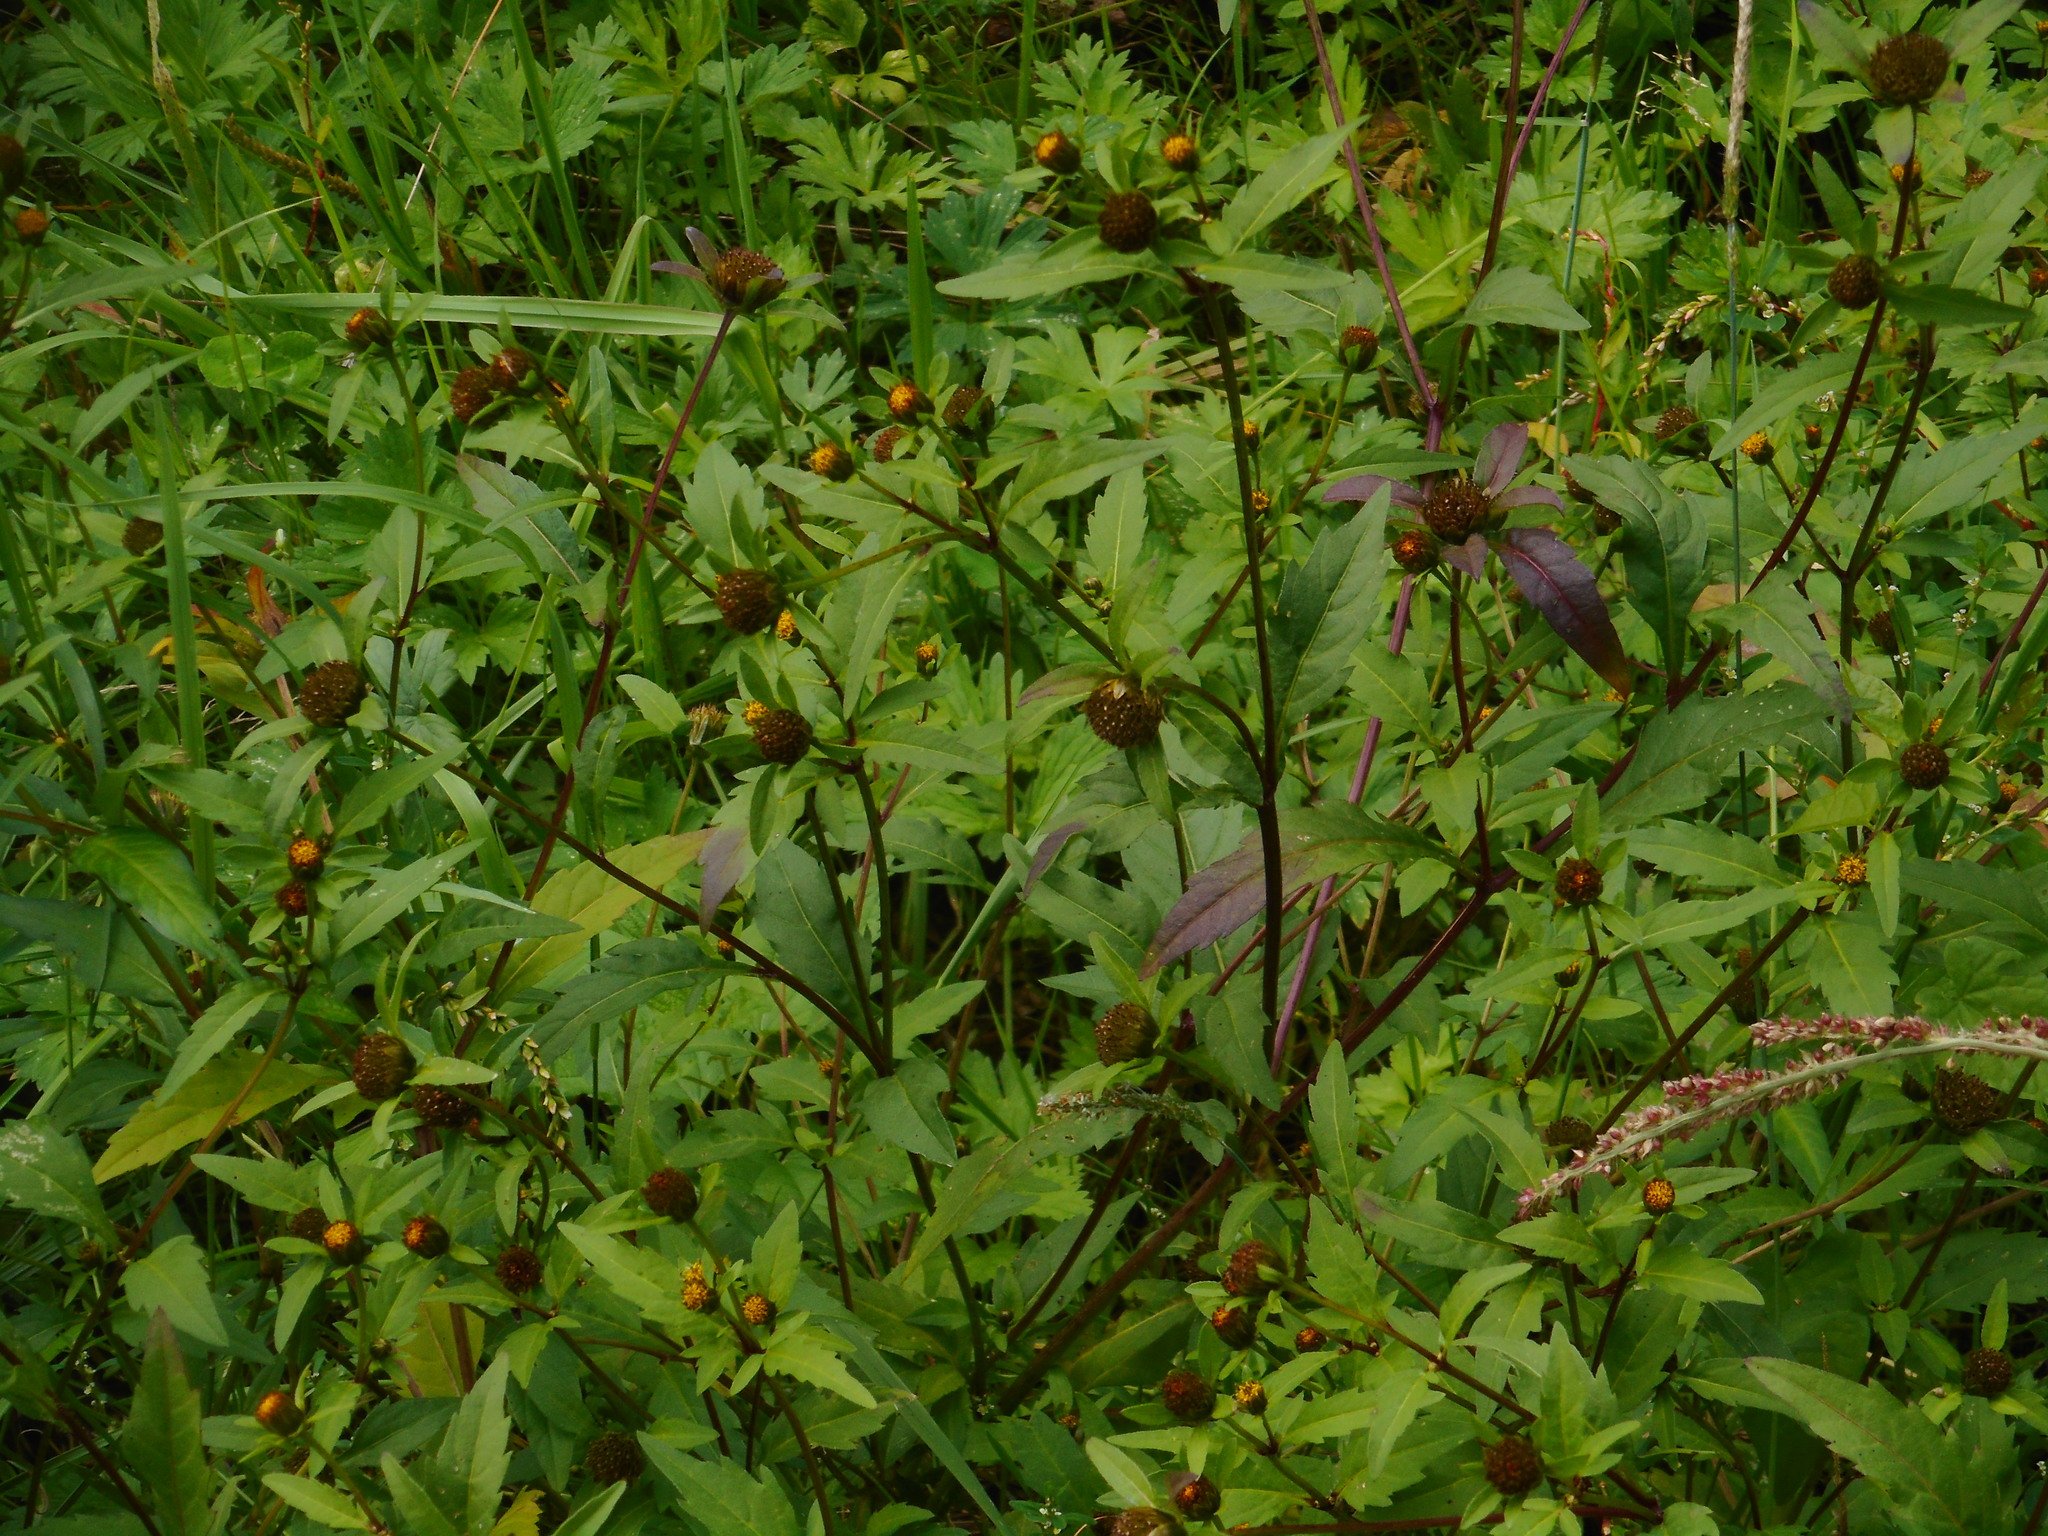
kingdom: Plantae
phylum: Tracheophyta
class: Magnoliopsida
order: Asterales
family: Asteraceae
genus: Bidens
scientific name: Bidens tripartita
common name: Trifid bur-marigold
